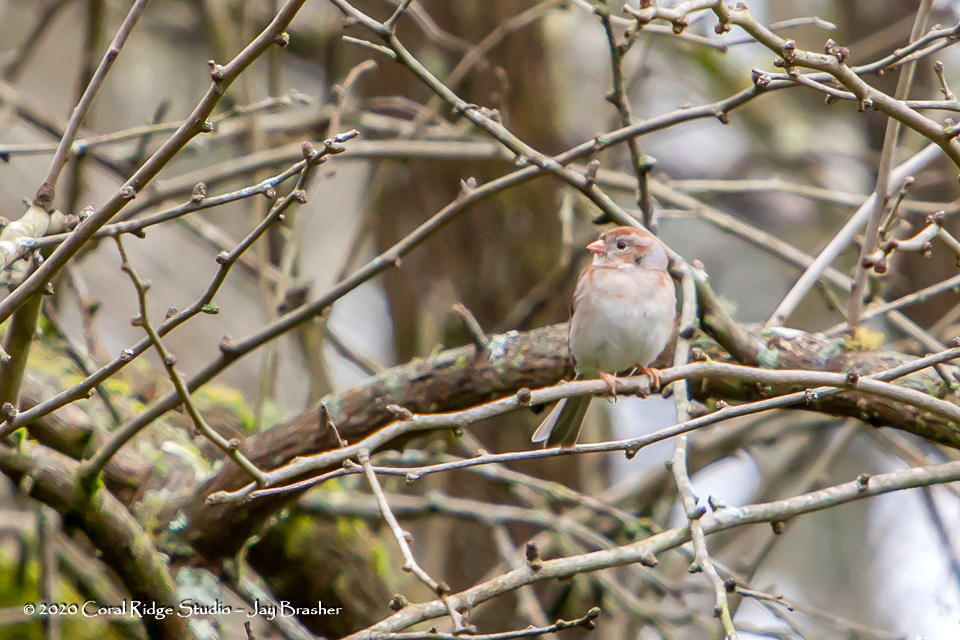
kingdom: Animalia
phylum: Chordata
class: Aves
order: Passeriformes
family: Passerellidae
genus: Spizella
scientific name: Spizella pusilla
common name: Field sparrow
